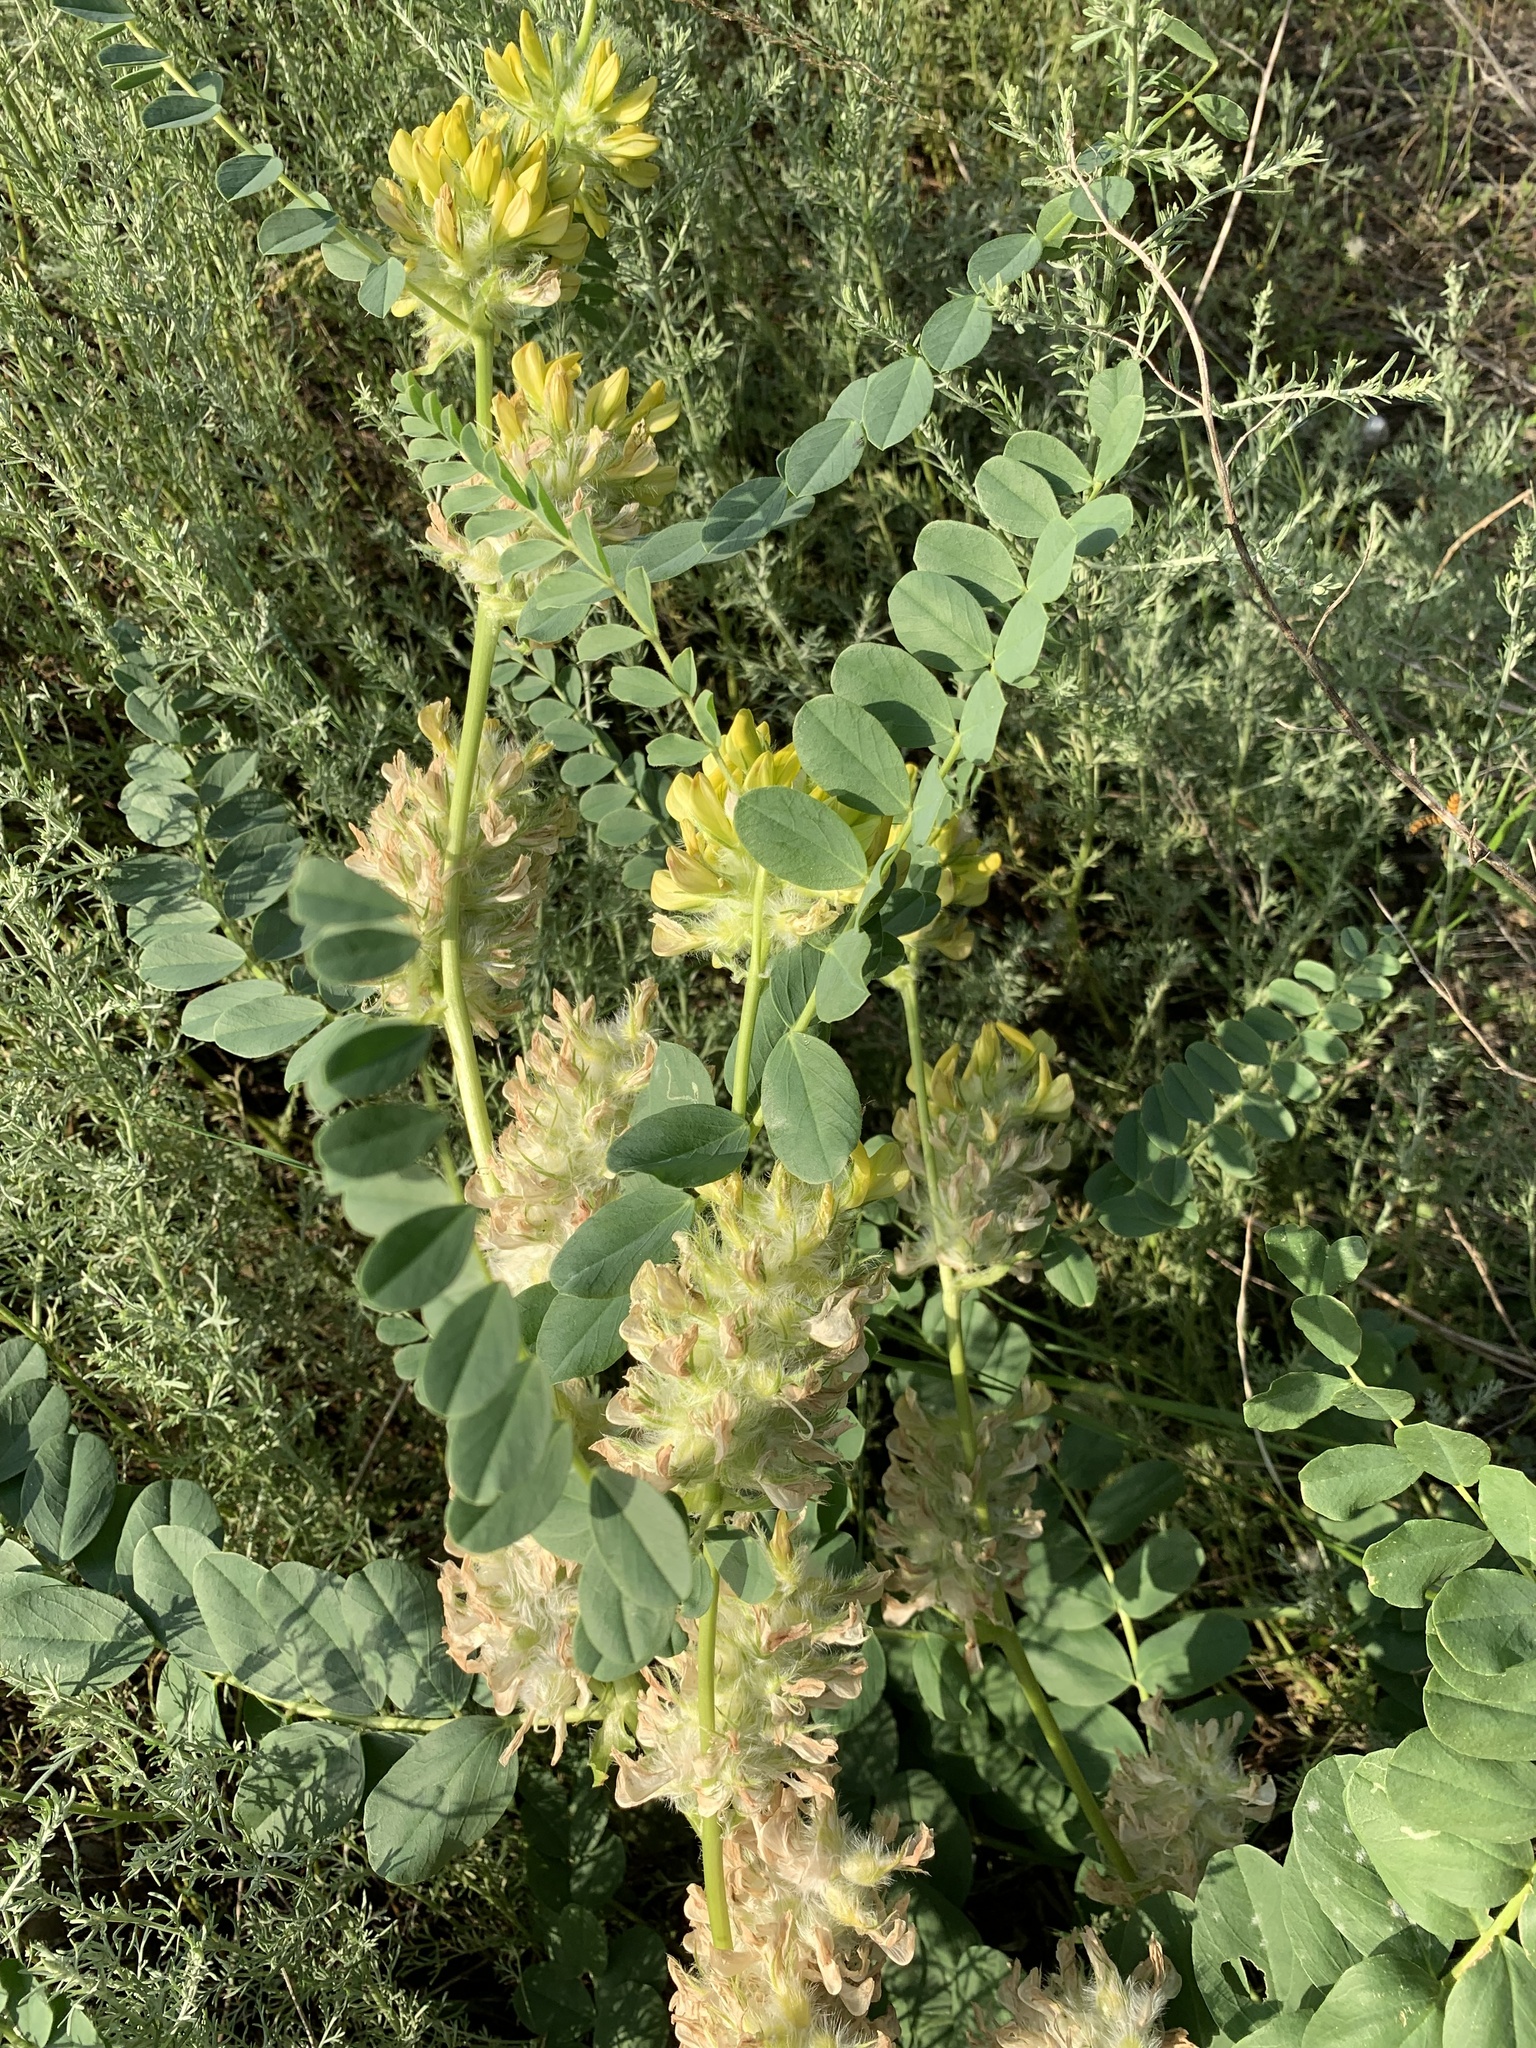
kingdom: Plantae
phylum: Tracheophyta
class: Magnoliopsida
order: Fabales
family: Fabaceae
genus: Astragalus
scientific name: Astragalus vulpinus
